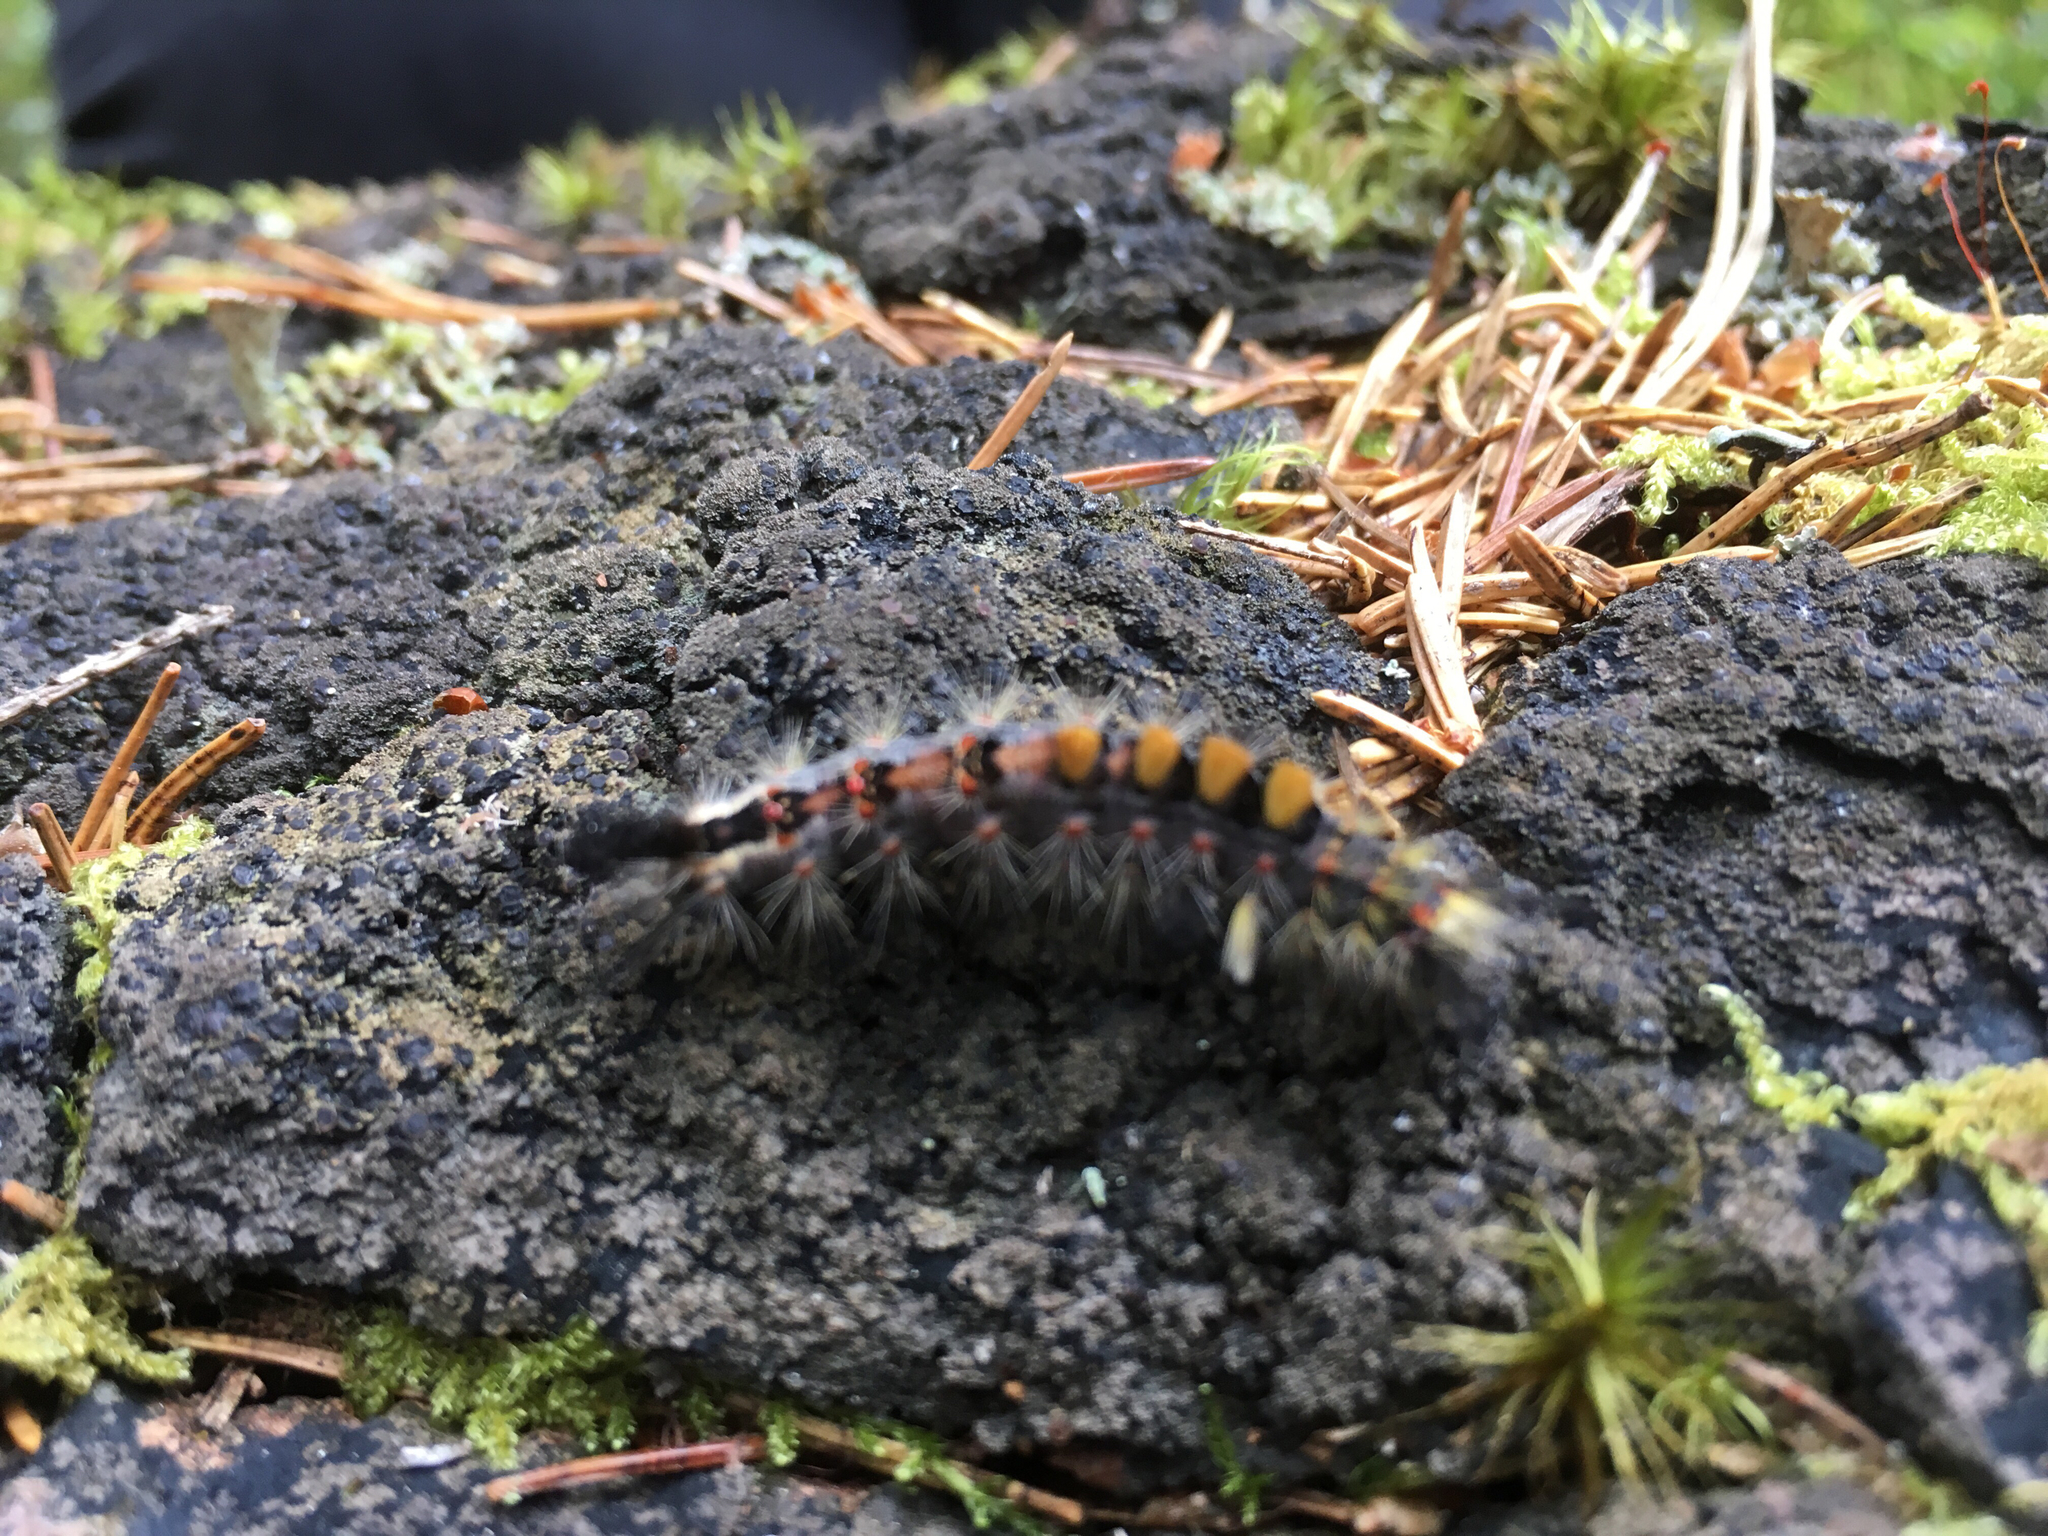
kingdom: Animalia
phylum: Arthropoda
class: Insecta
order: Lepidoptera
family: Erebidae
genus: Orgyia
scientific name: Orgyia antiqua
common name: Vapourer
